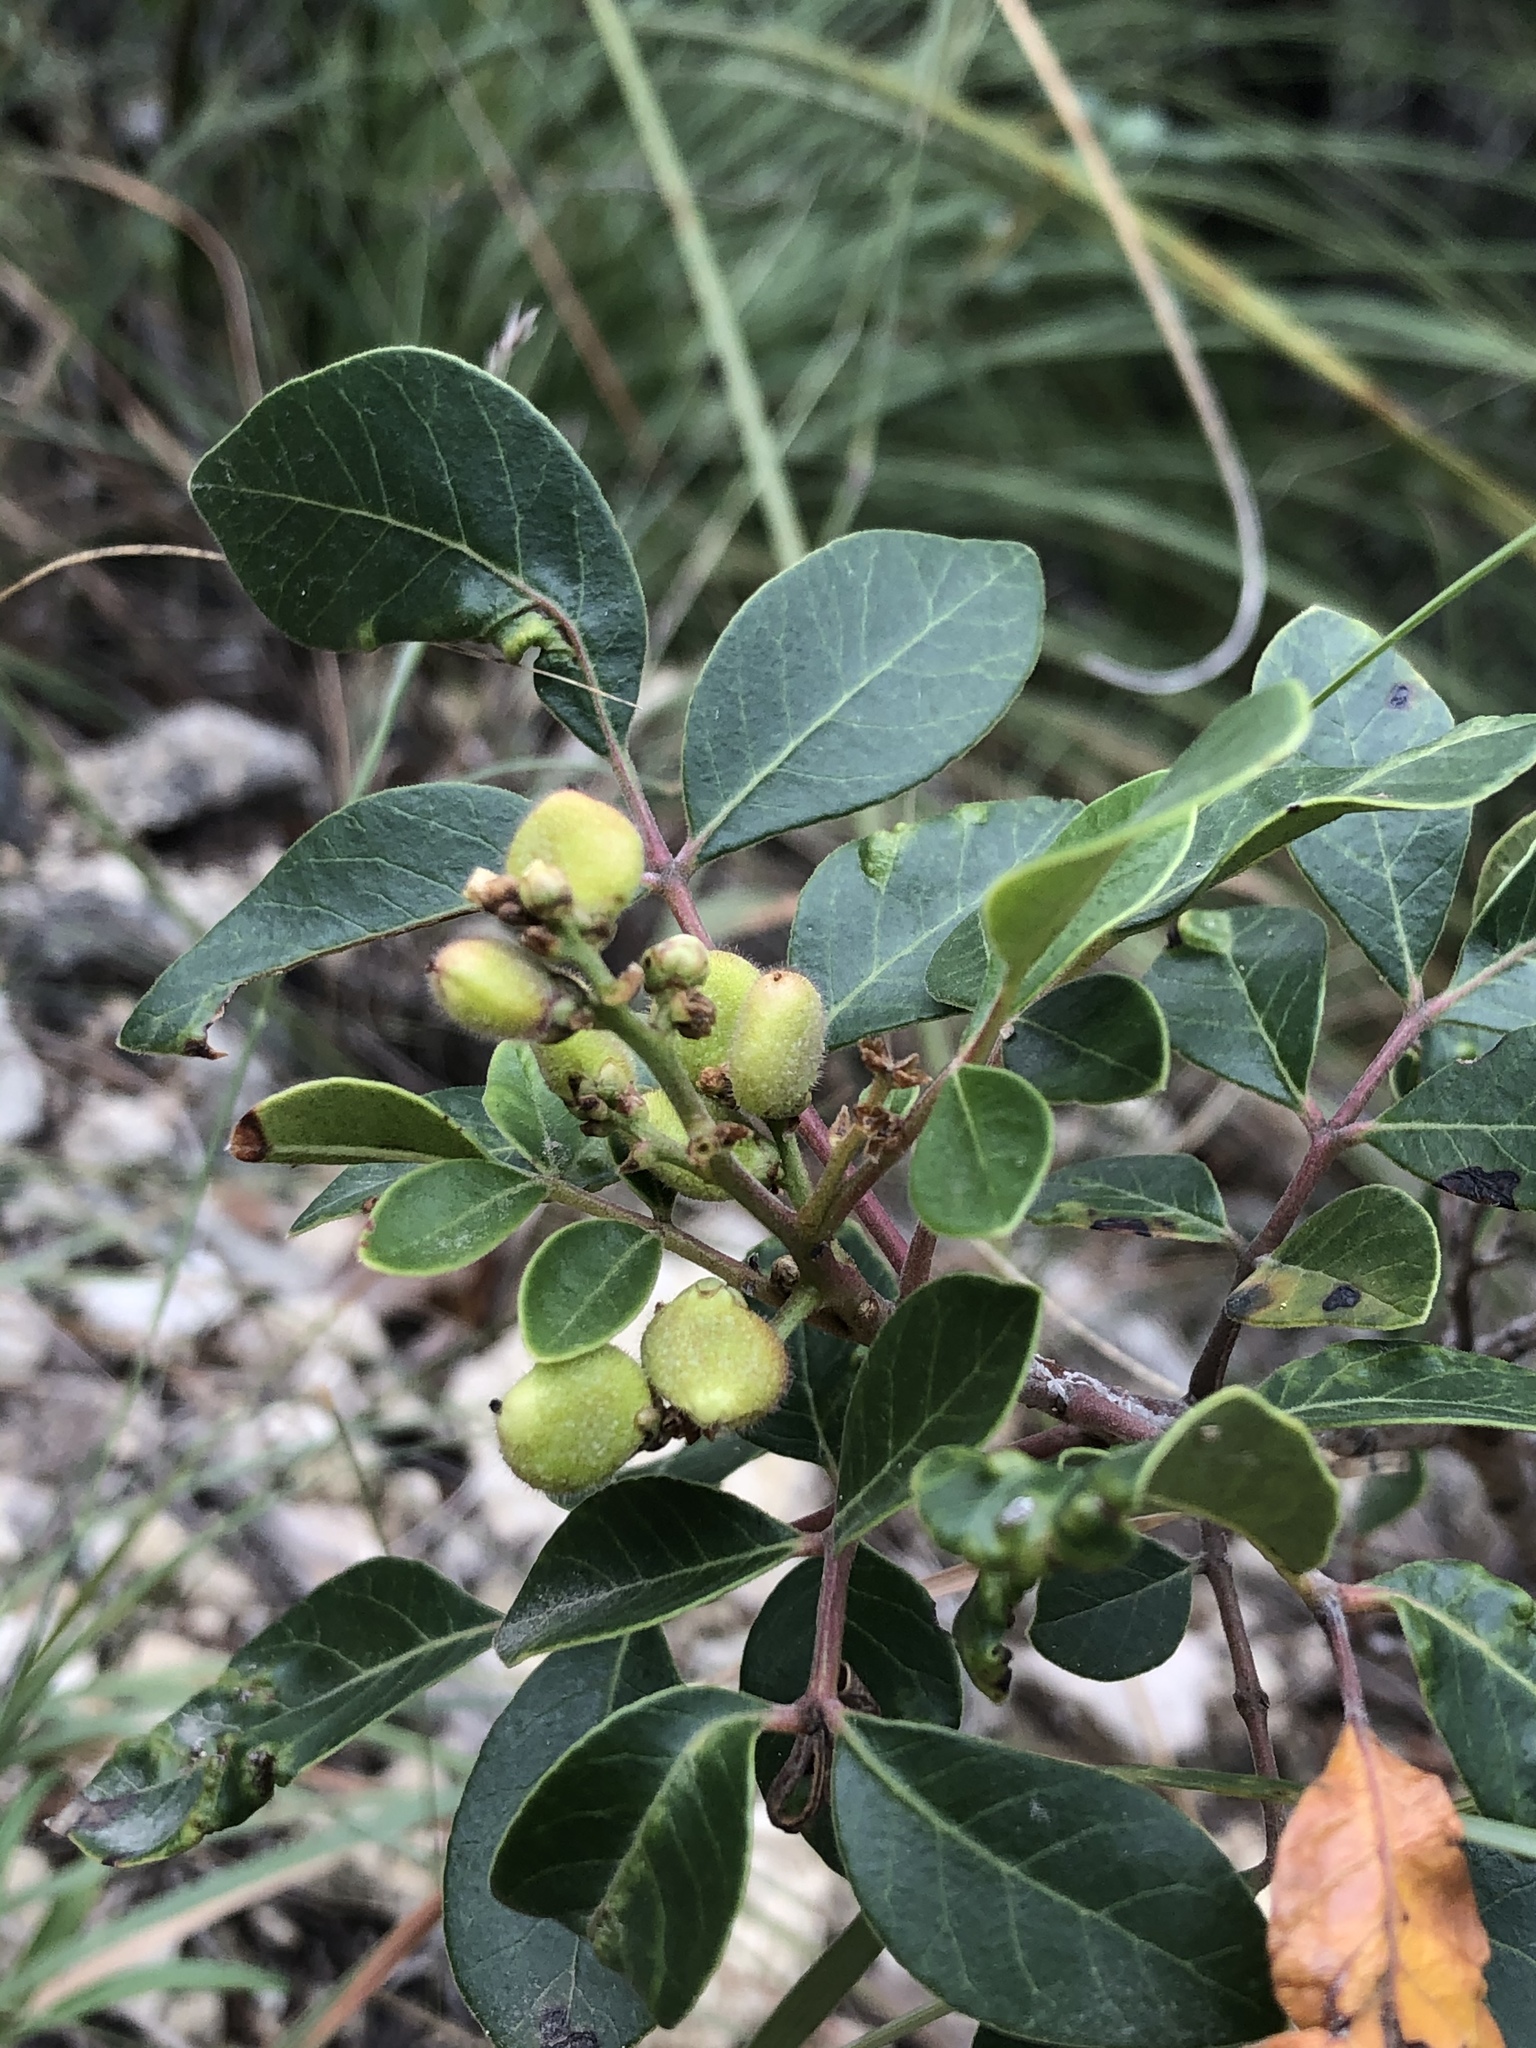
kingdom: Plantae
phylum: Tracheophyta
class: Magnoliopsida
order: Sapindales
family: Anacardiaceae
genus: Rhus
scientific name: Rhus virens
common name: Evergreen sumac
